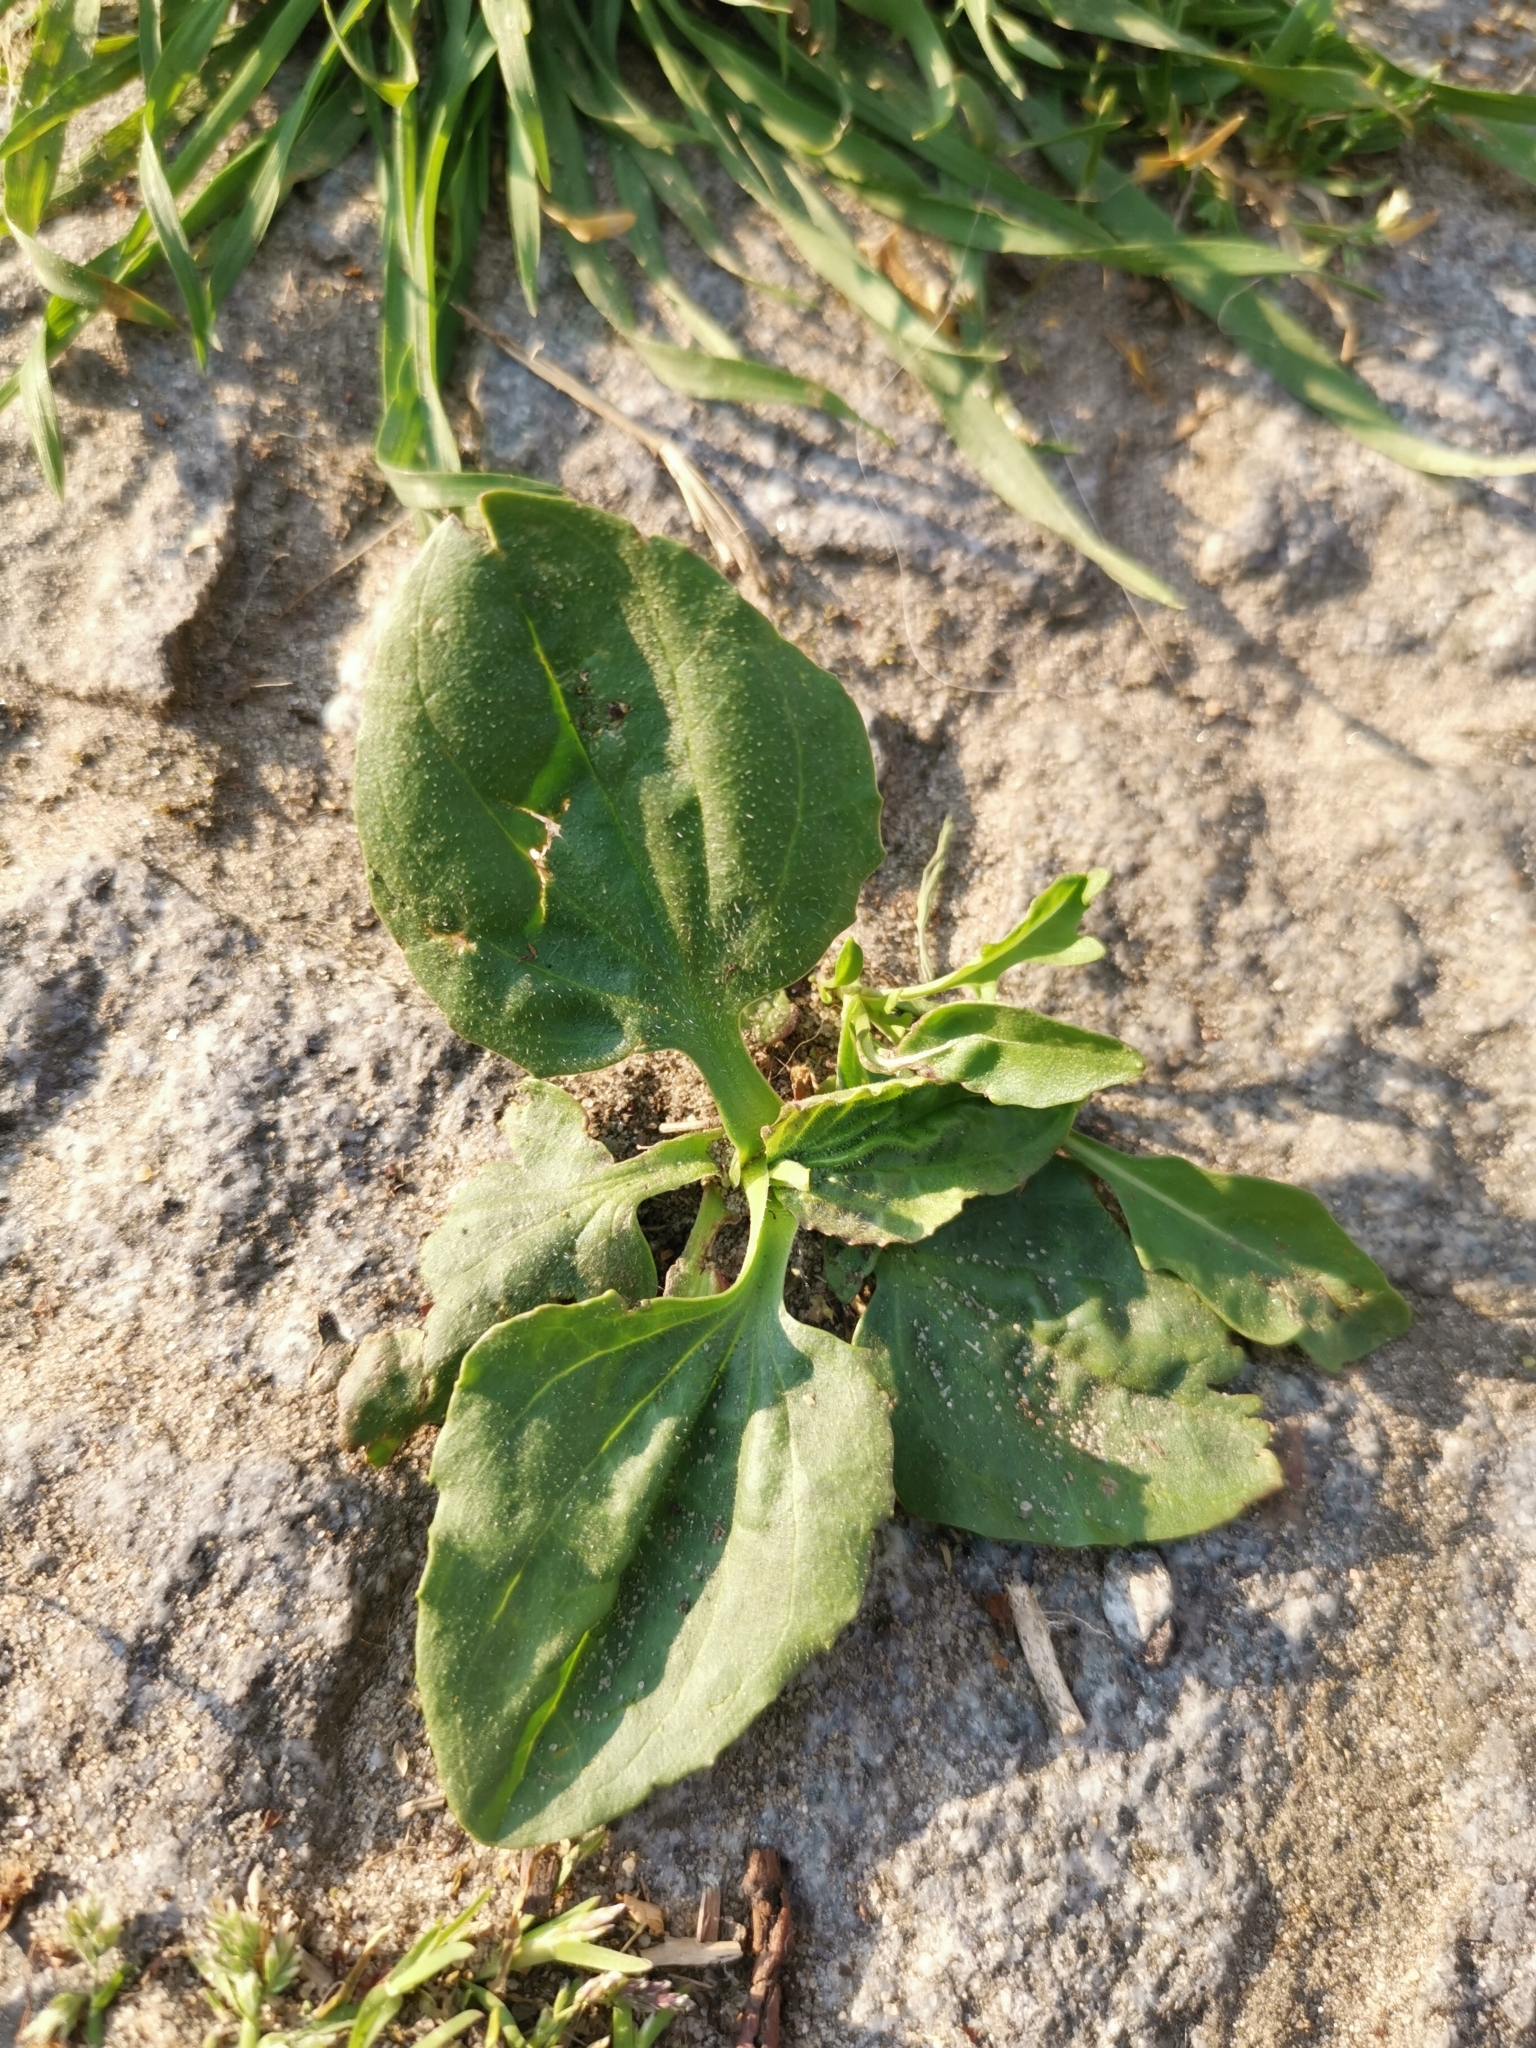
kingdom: Plantae
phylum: Tracheophyta
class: Magnoliopsida
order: Lamiales
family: Plantaginaceae
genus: Plantago
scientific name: Plantago major
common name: Common plantain
